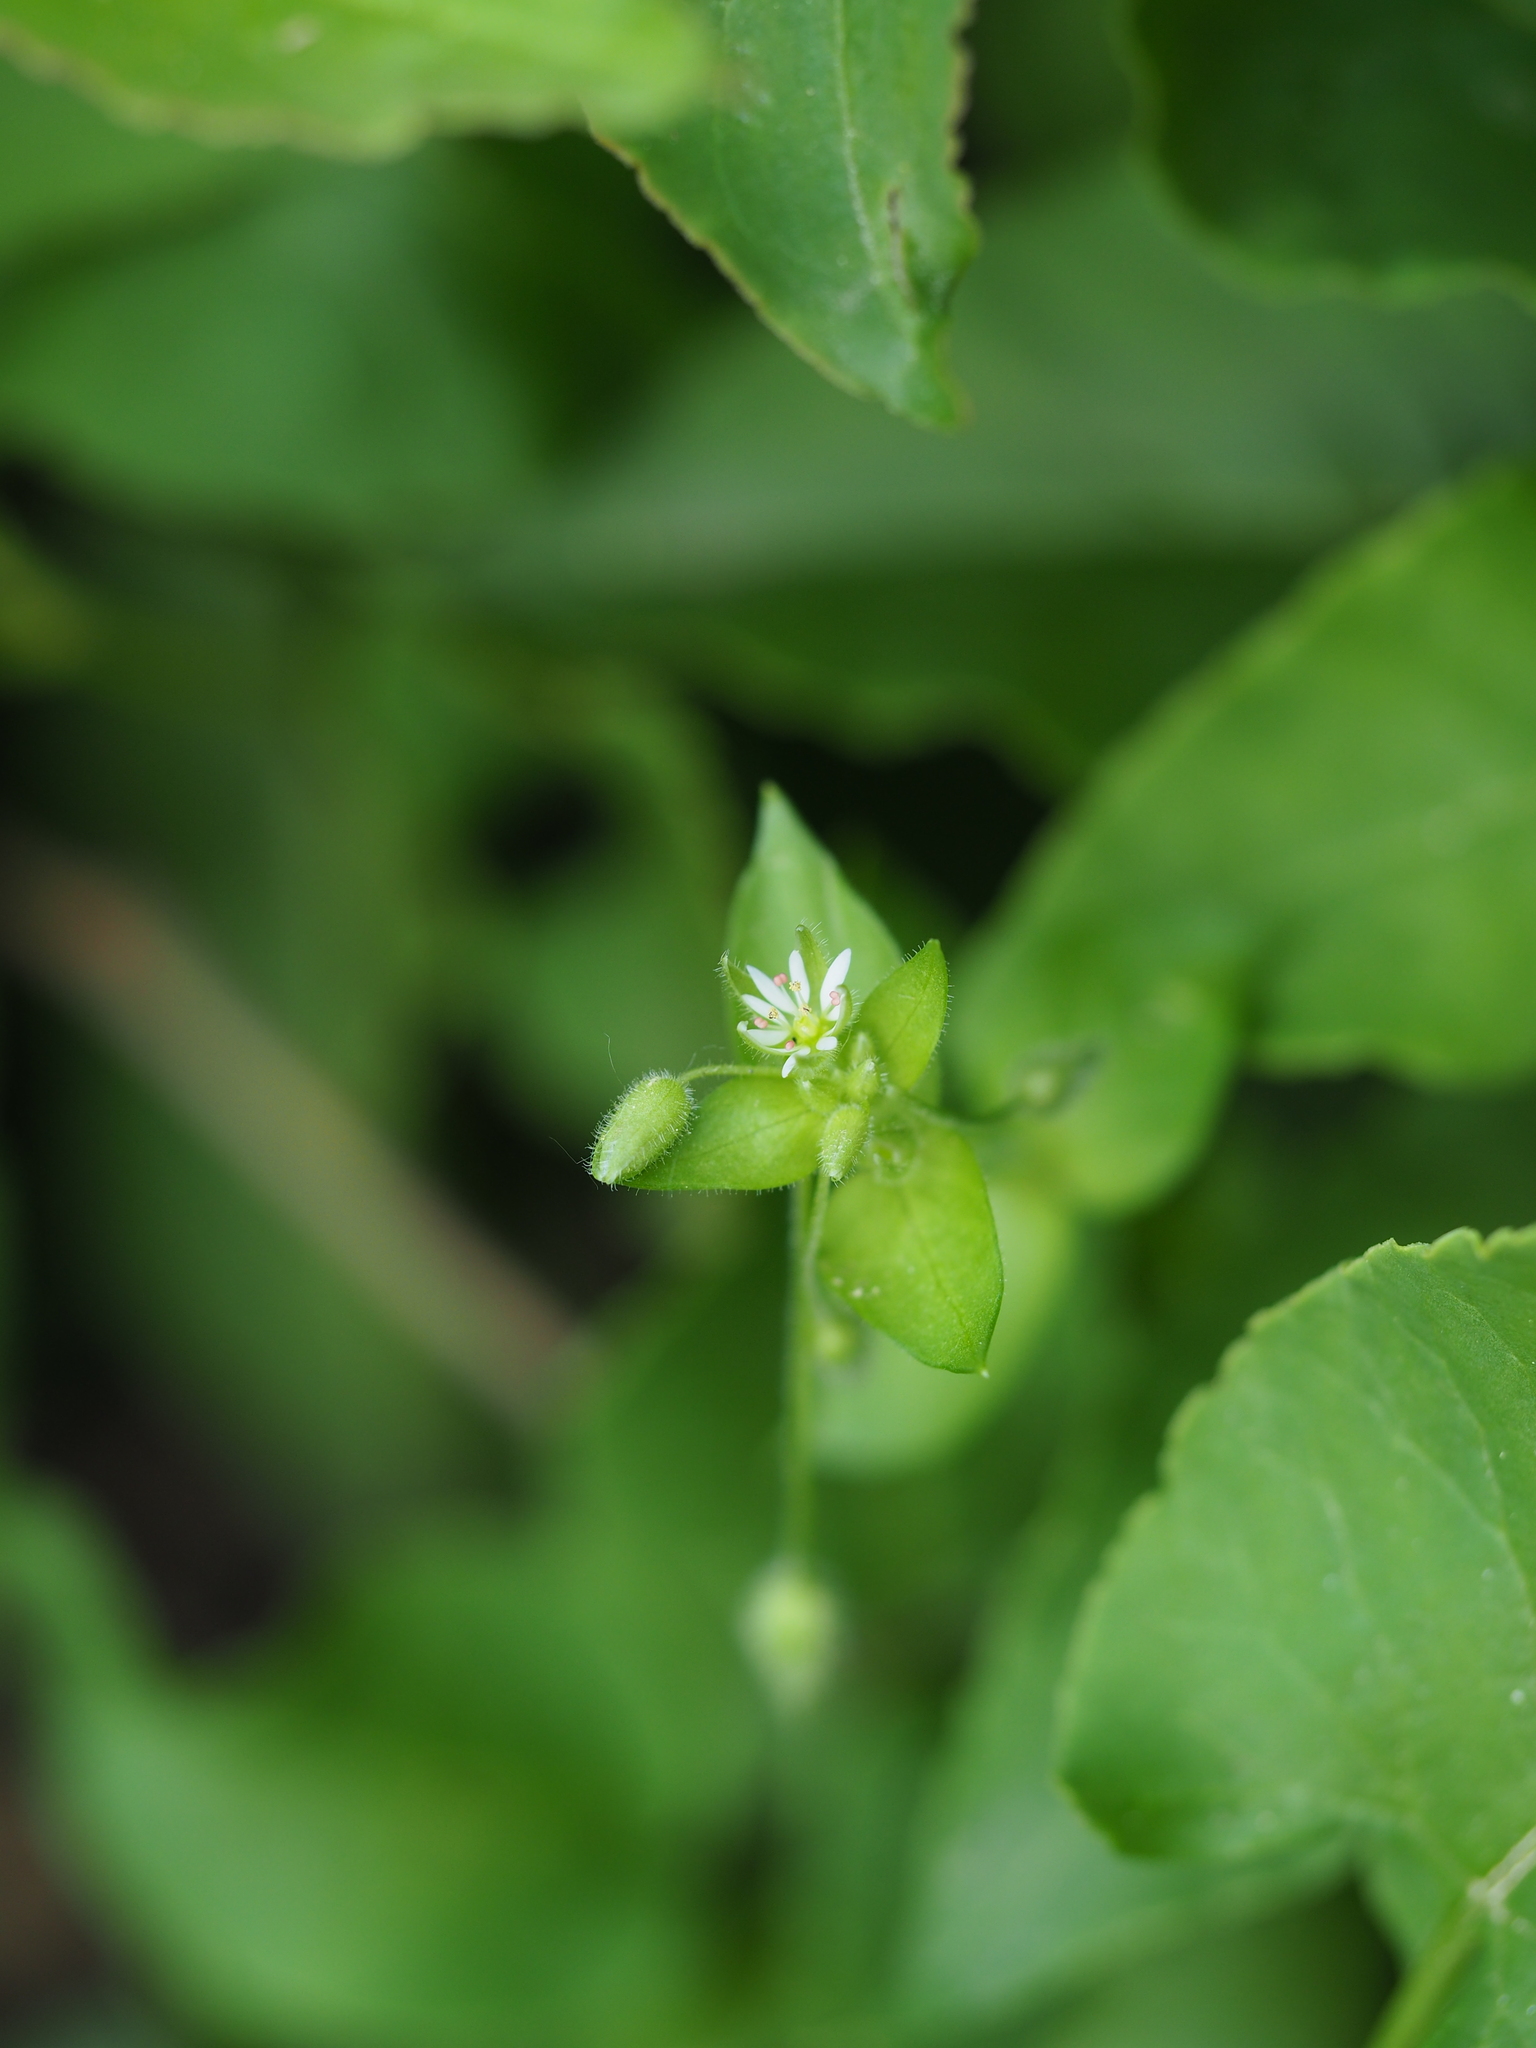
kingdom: Plantae
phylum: Tracheophyta
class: Magnoliopsida
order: Caryophyllales
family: Caryophyllaceae
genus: Stellaria
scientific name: Stellaria media
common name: Common chickweed
